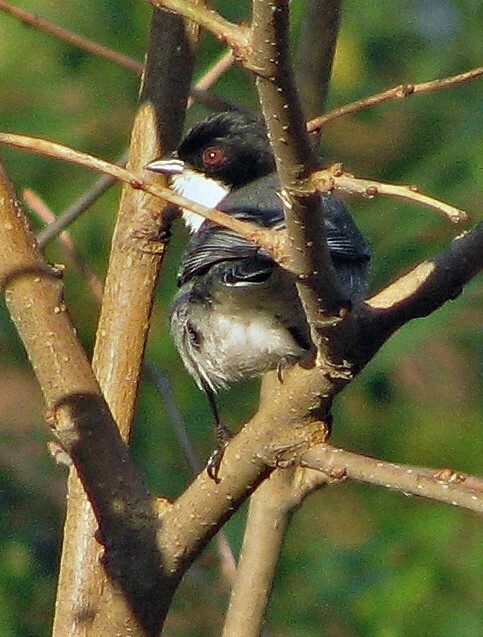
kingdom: Animalia
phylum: Chordata
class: Aves
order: Passeriformes
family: Thraupidae
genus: Microspingus
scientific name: Microspingus melanoleucus
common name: Black-capped warbling-finch
